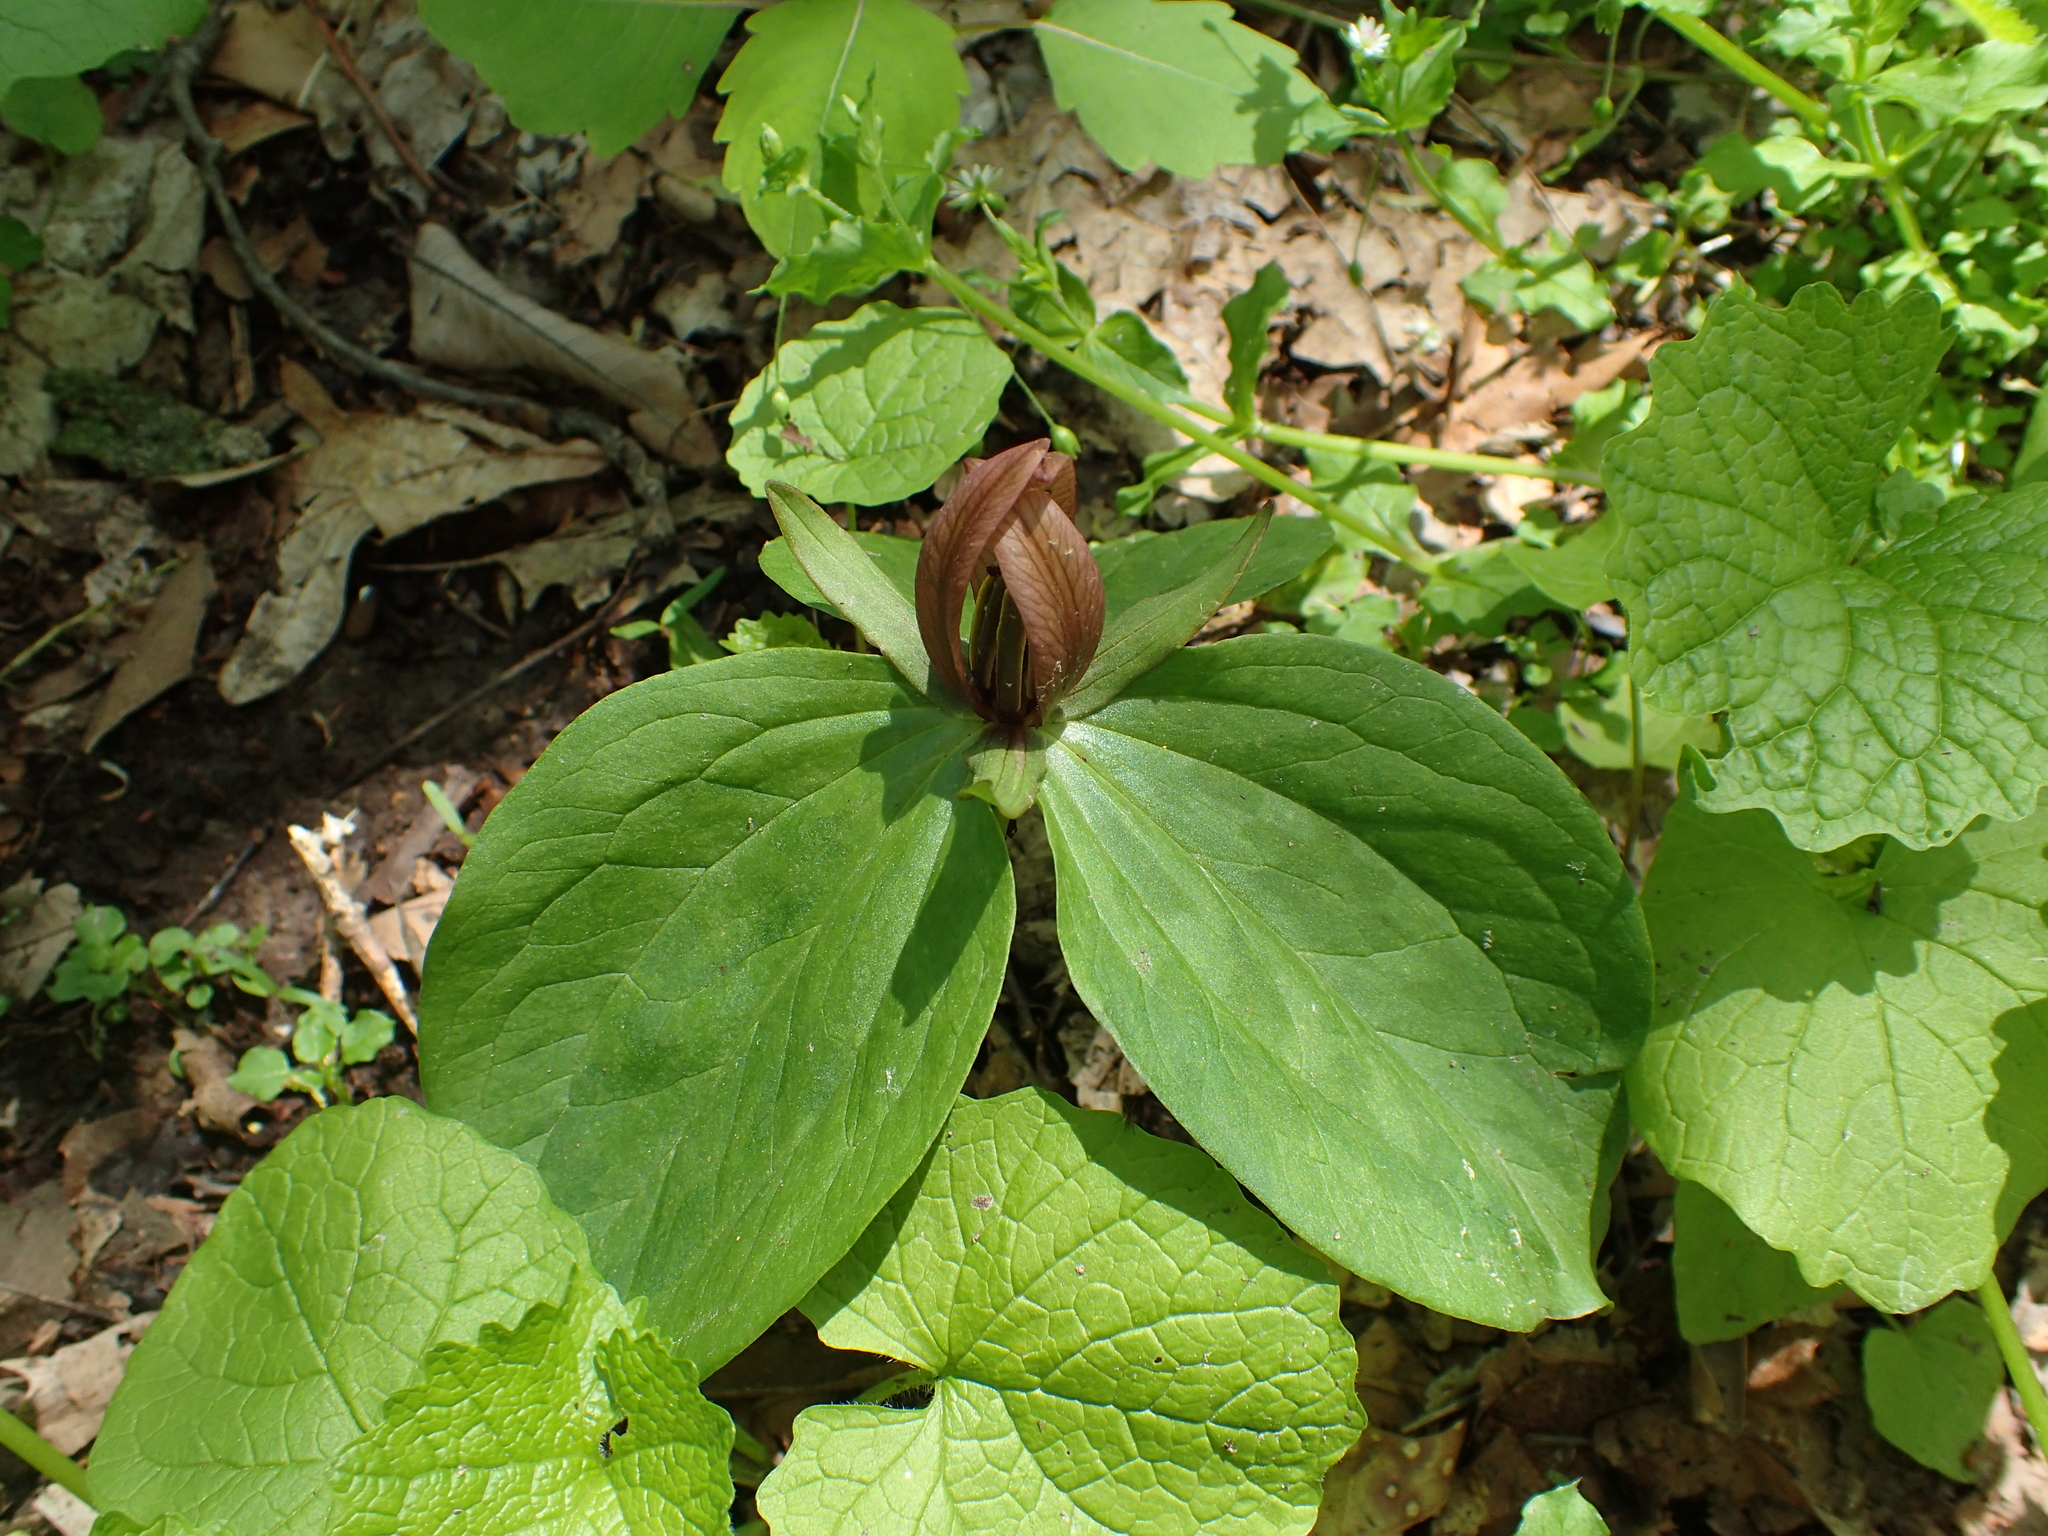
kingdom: Plantae
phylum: Tracheophyta
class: Liliopsida
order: Liliales
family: Melanthiaceae
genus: Trillium
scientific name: Trillium sessile
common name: Sessile trillium
